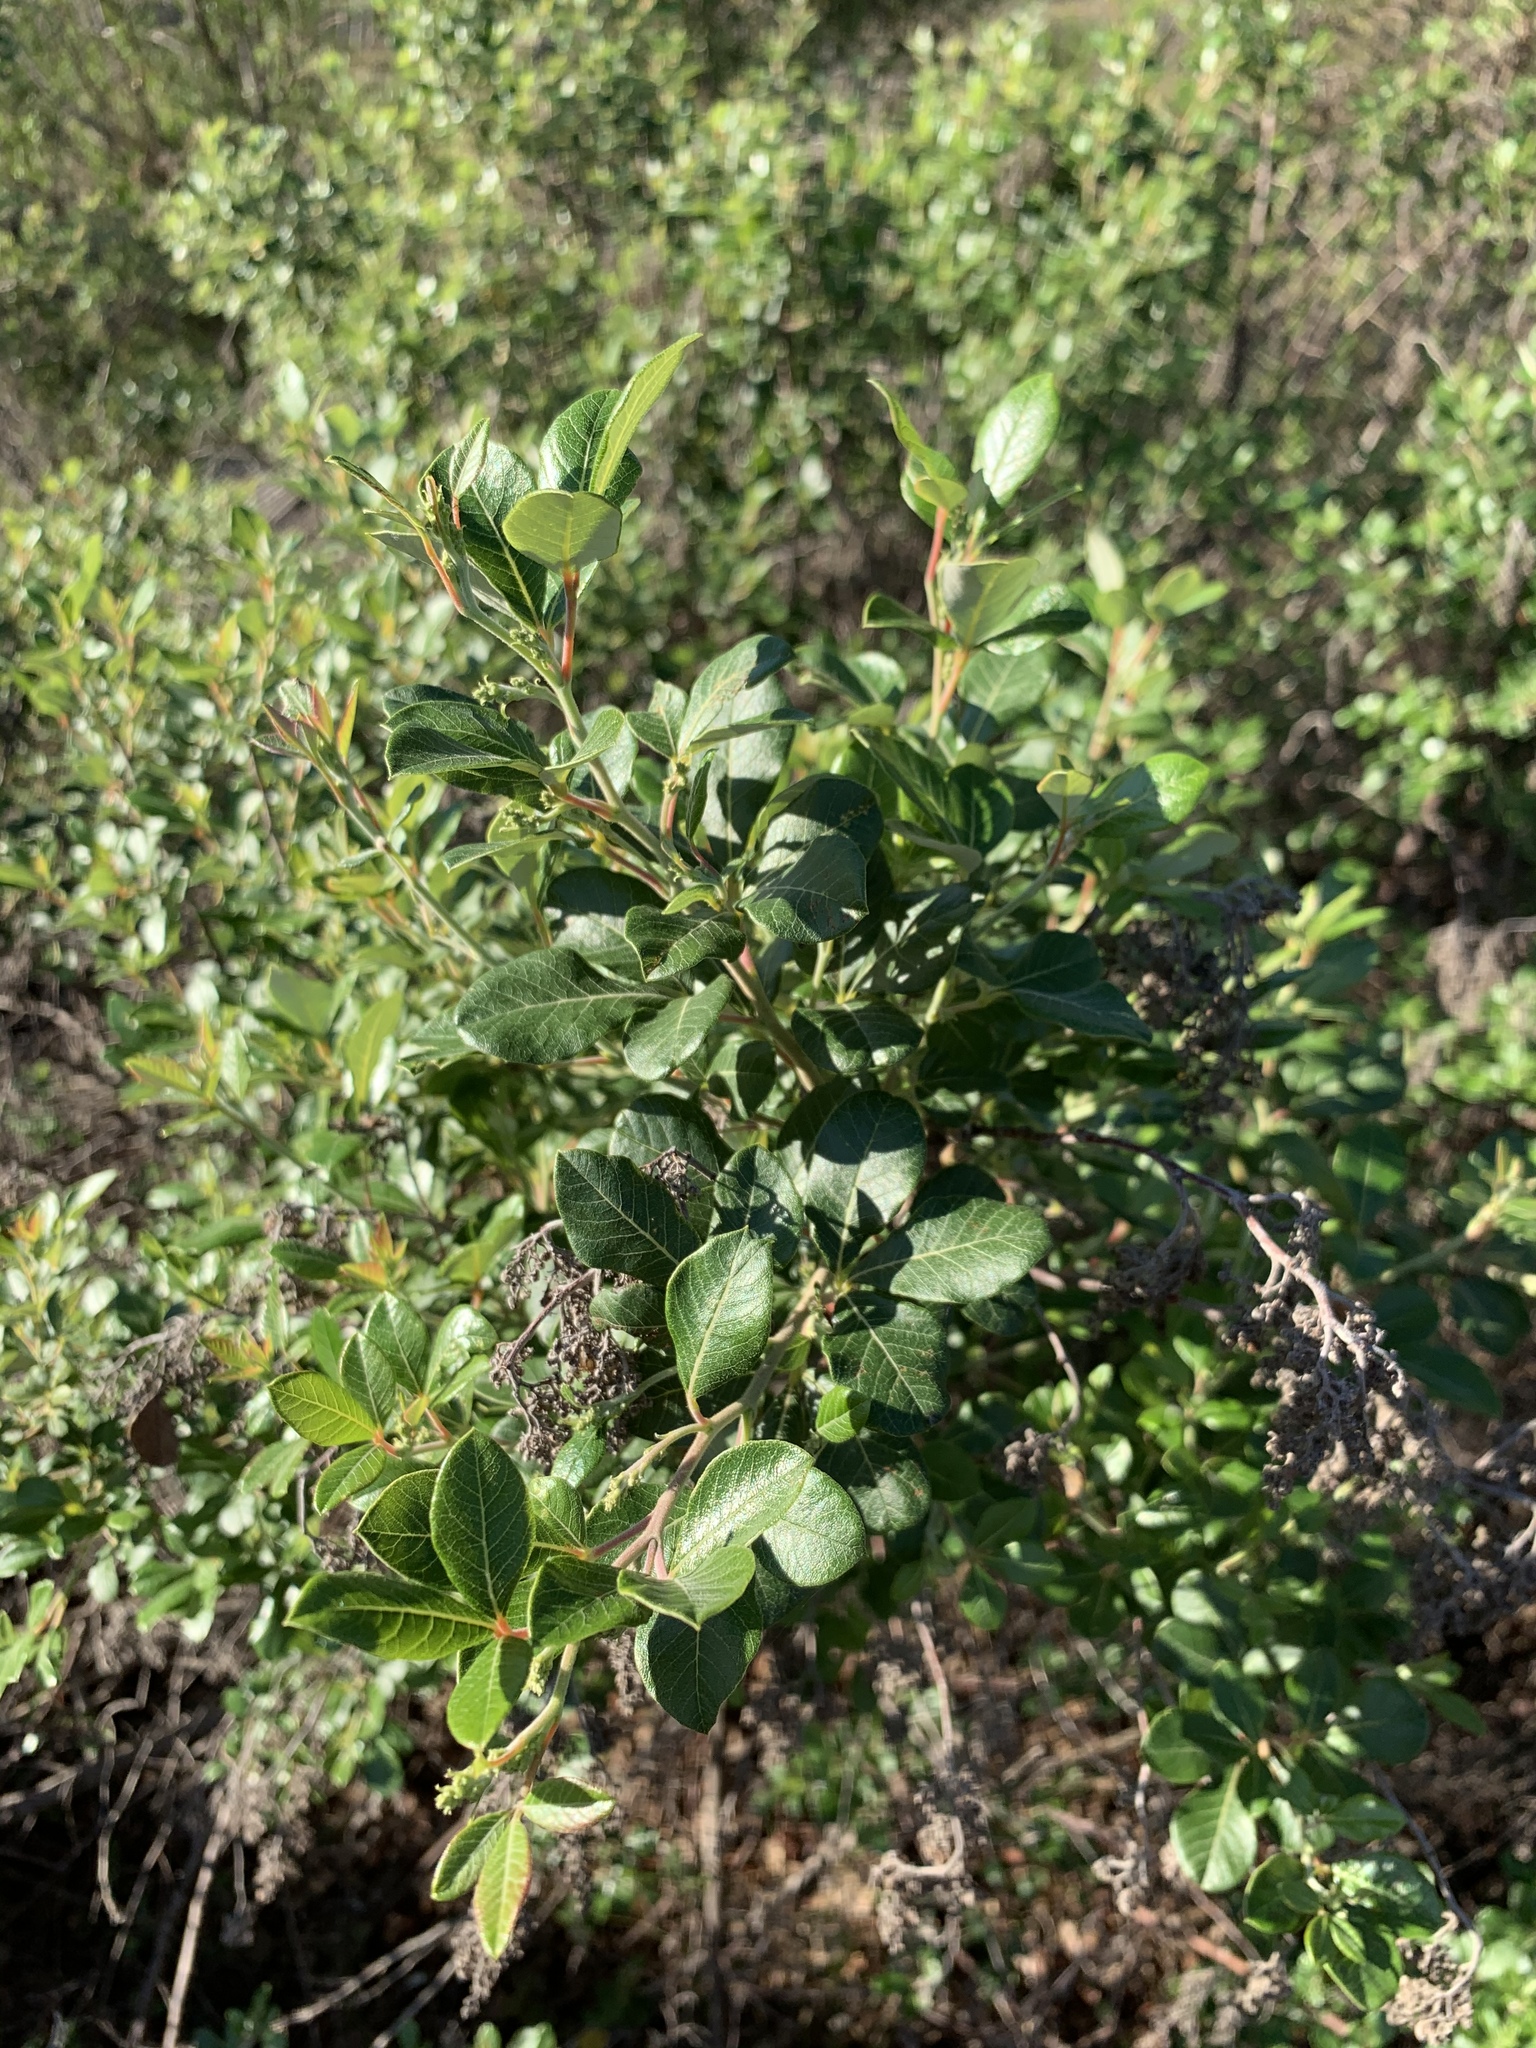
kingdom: Plantae
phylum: Tracheophyta
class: Magnoliopsida
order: Sapindales
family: Anacardiaceae
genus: Searsia
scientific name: Searsia tomentosa
